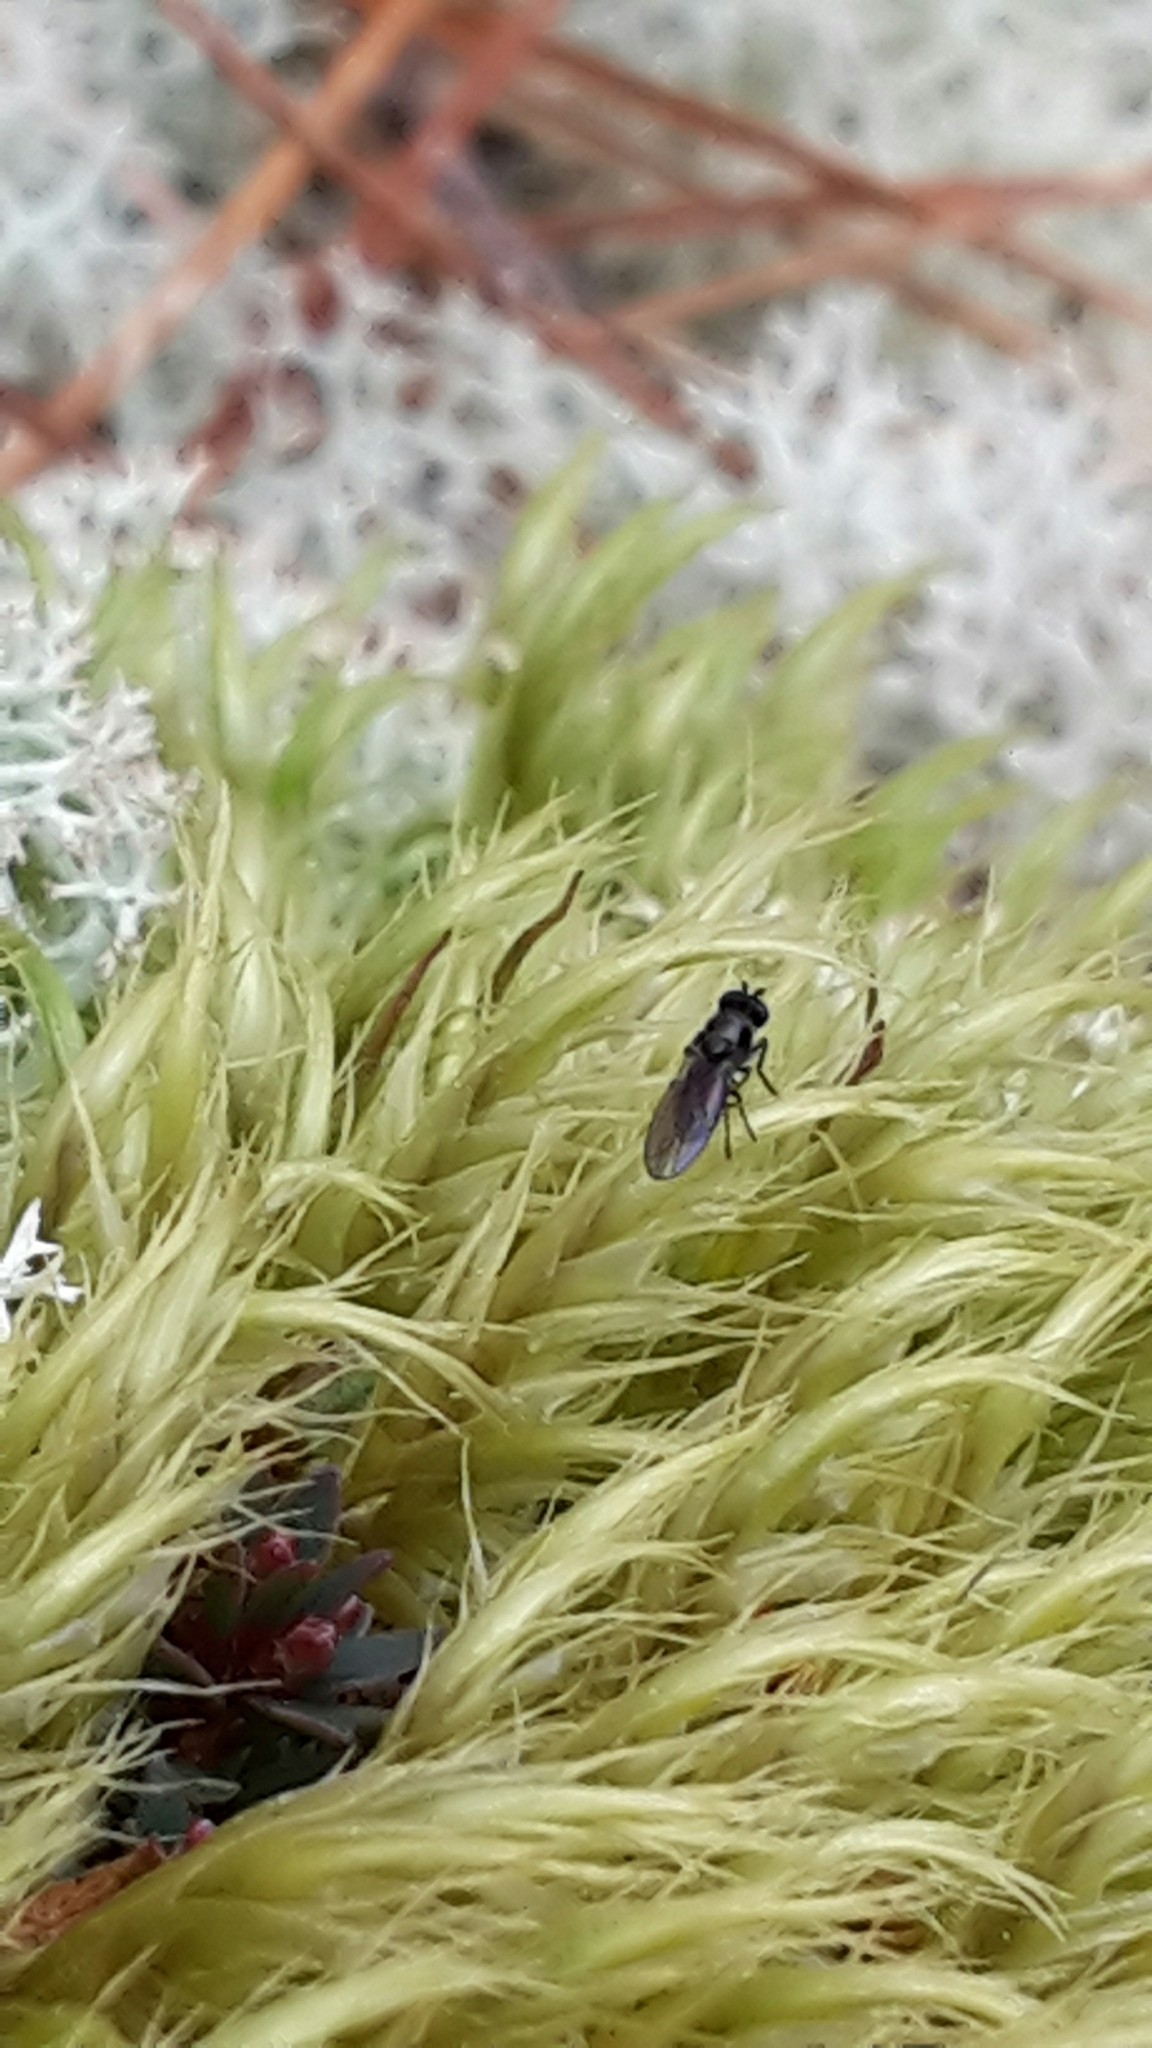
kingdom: Animalia
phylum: Arthropoda
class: Insecta
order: Diptera
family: Ephydridae
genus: Hydrellia
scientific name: Hydrellia tritici
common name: Shore fly
